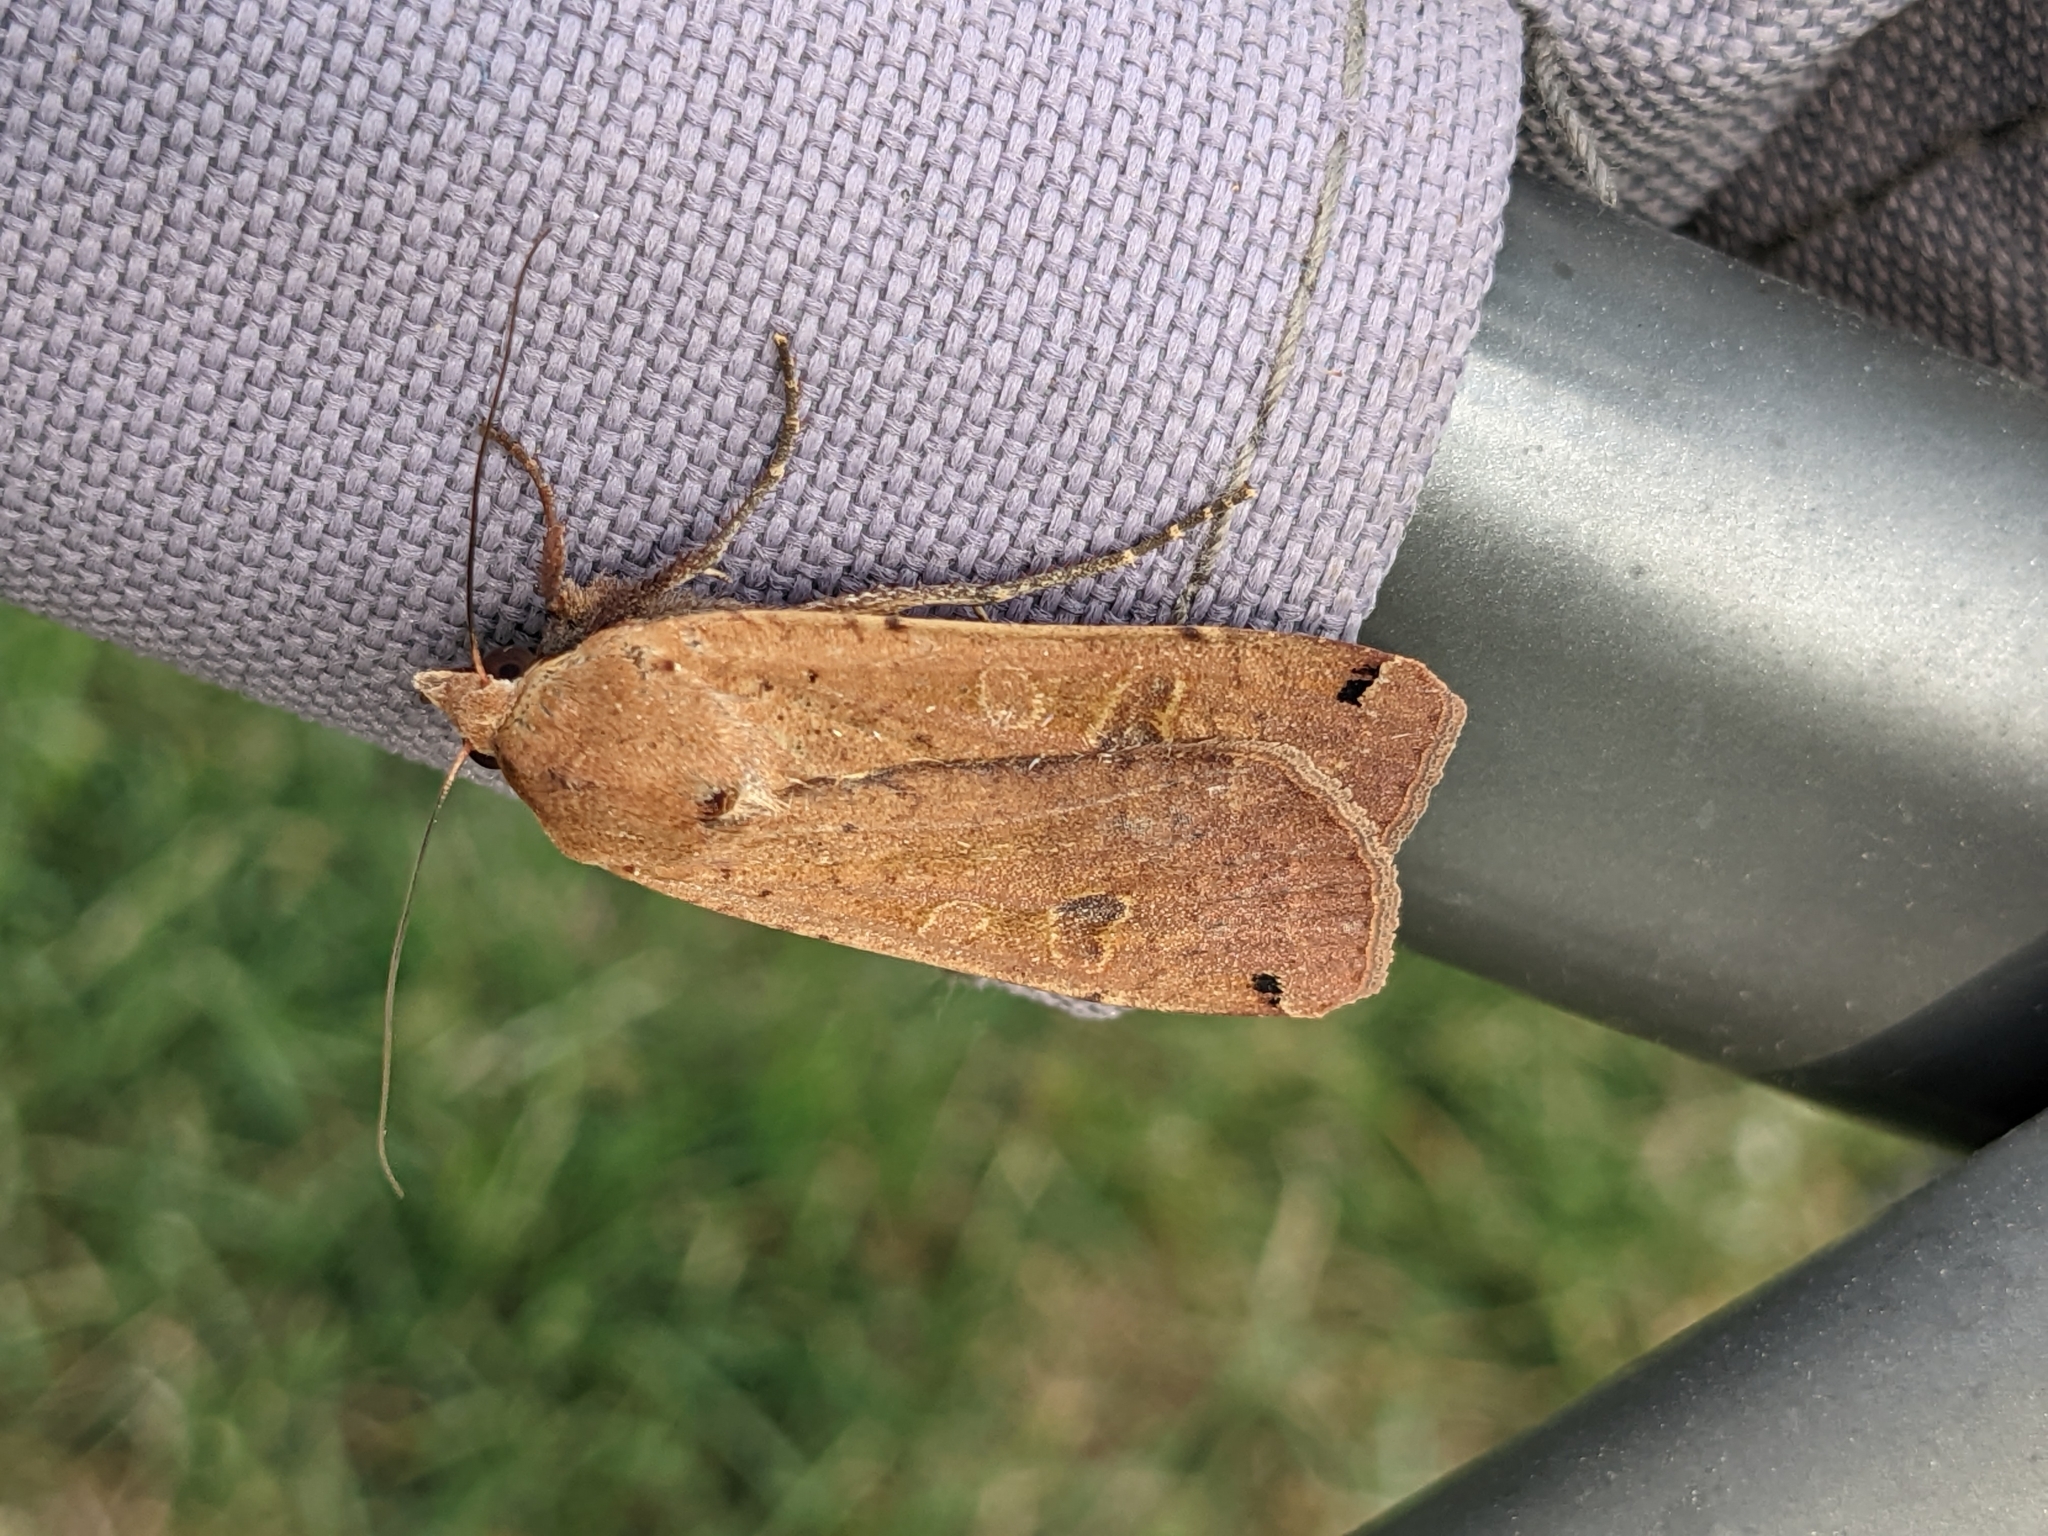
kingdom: Animalia
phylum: Arthropoda
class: Insecta
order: Lepidoptera
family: Noctuidae
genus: Noctua
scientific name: Noctua pronuba
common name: Large yellow underwing
